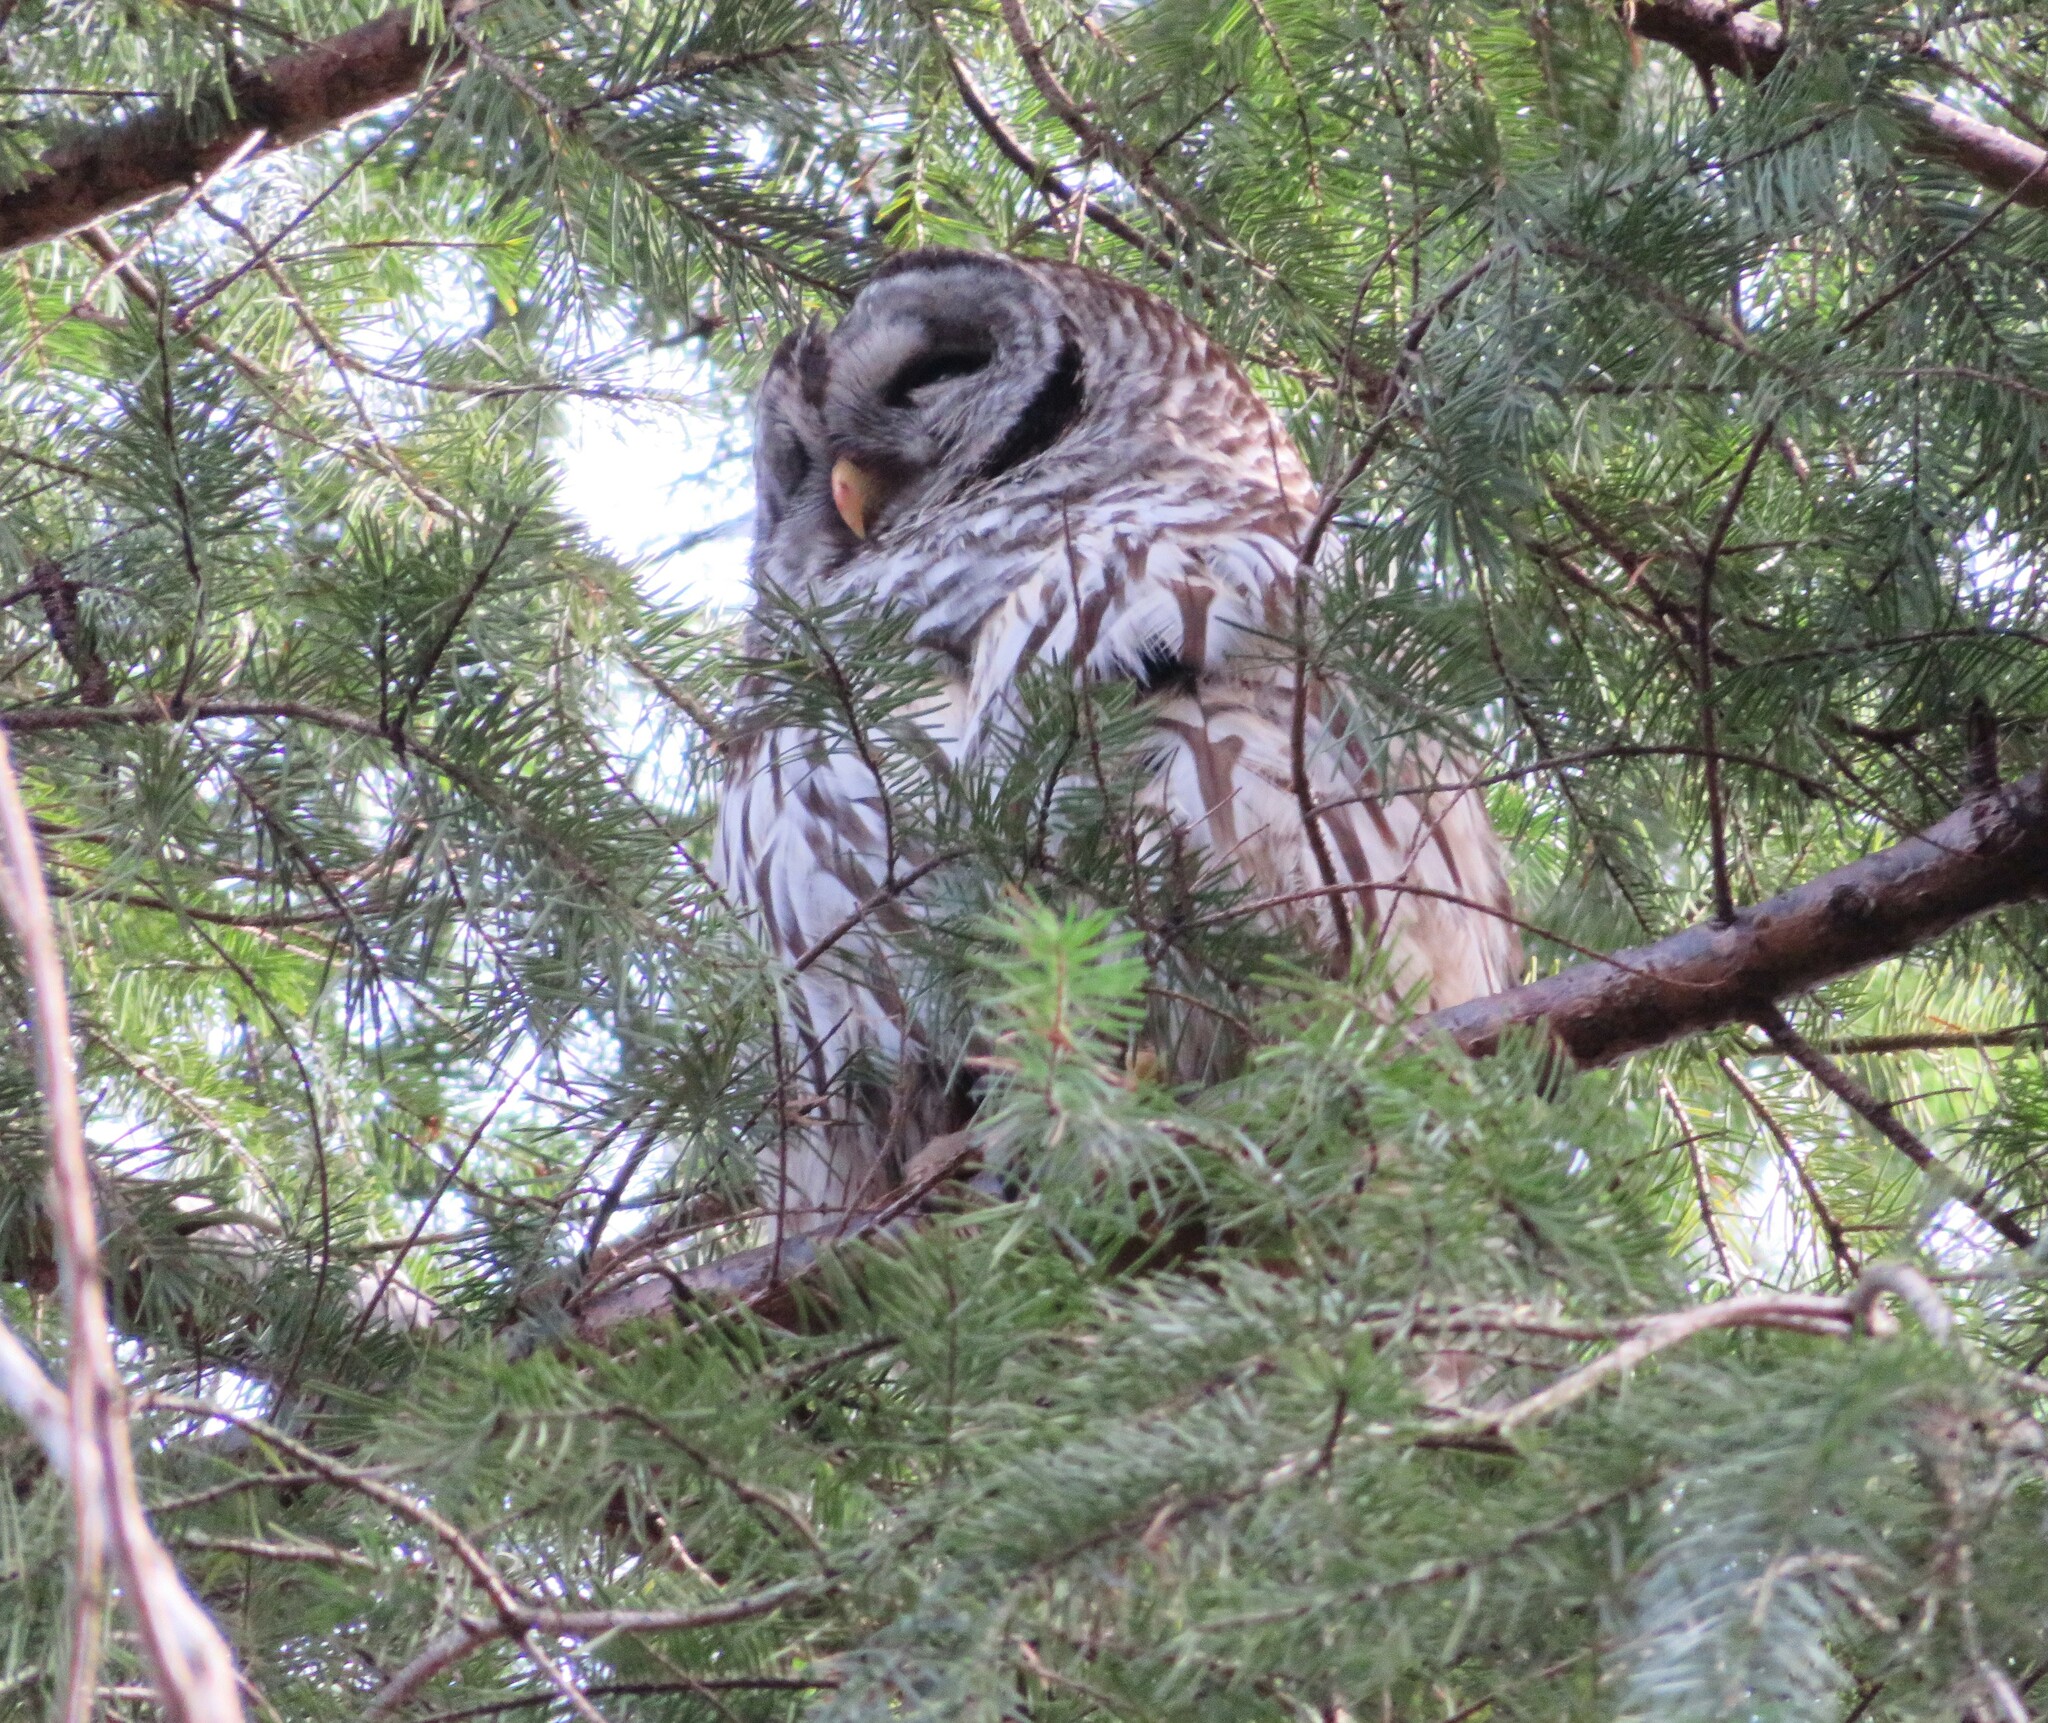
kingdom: Animalia
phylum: Chordata
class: Aves
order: Strigiformes
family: Strigidae
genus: Strix
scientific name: Strix varia
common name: Barred owl
